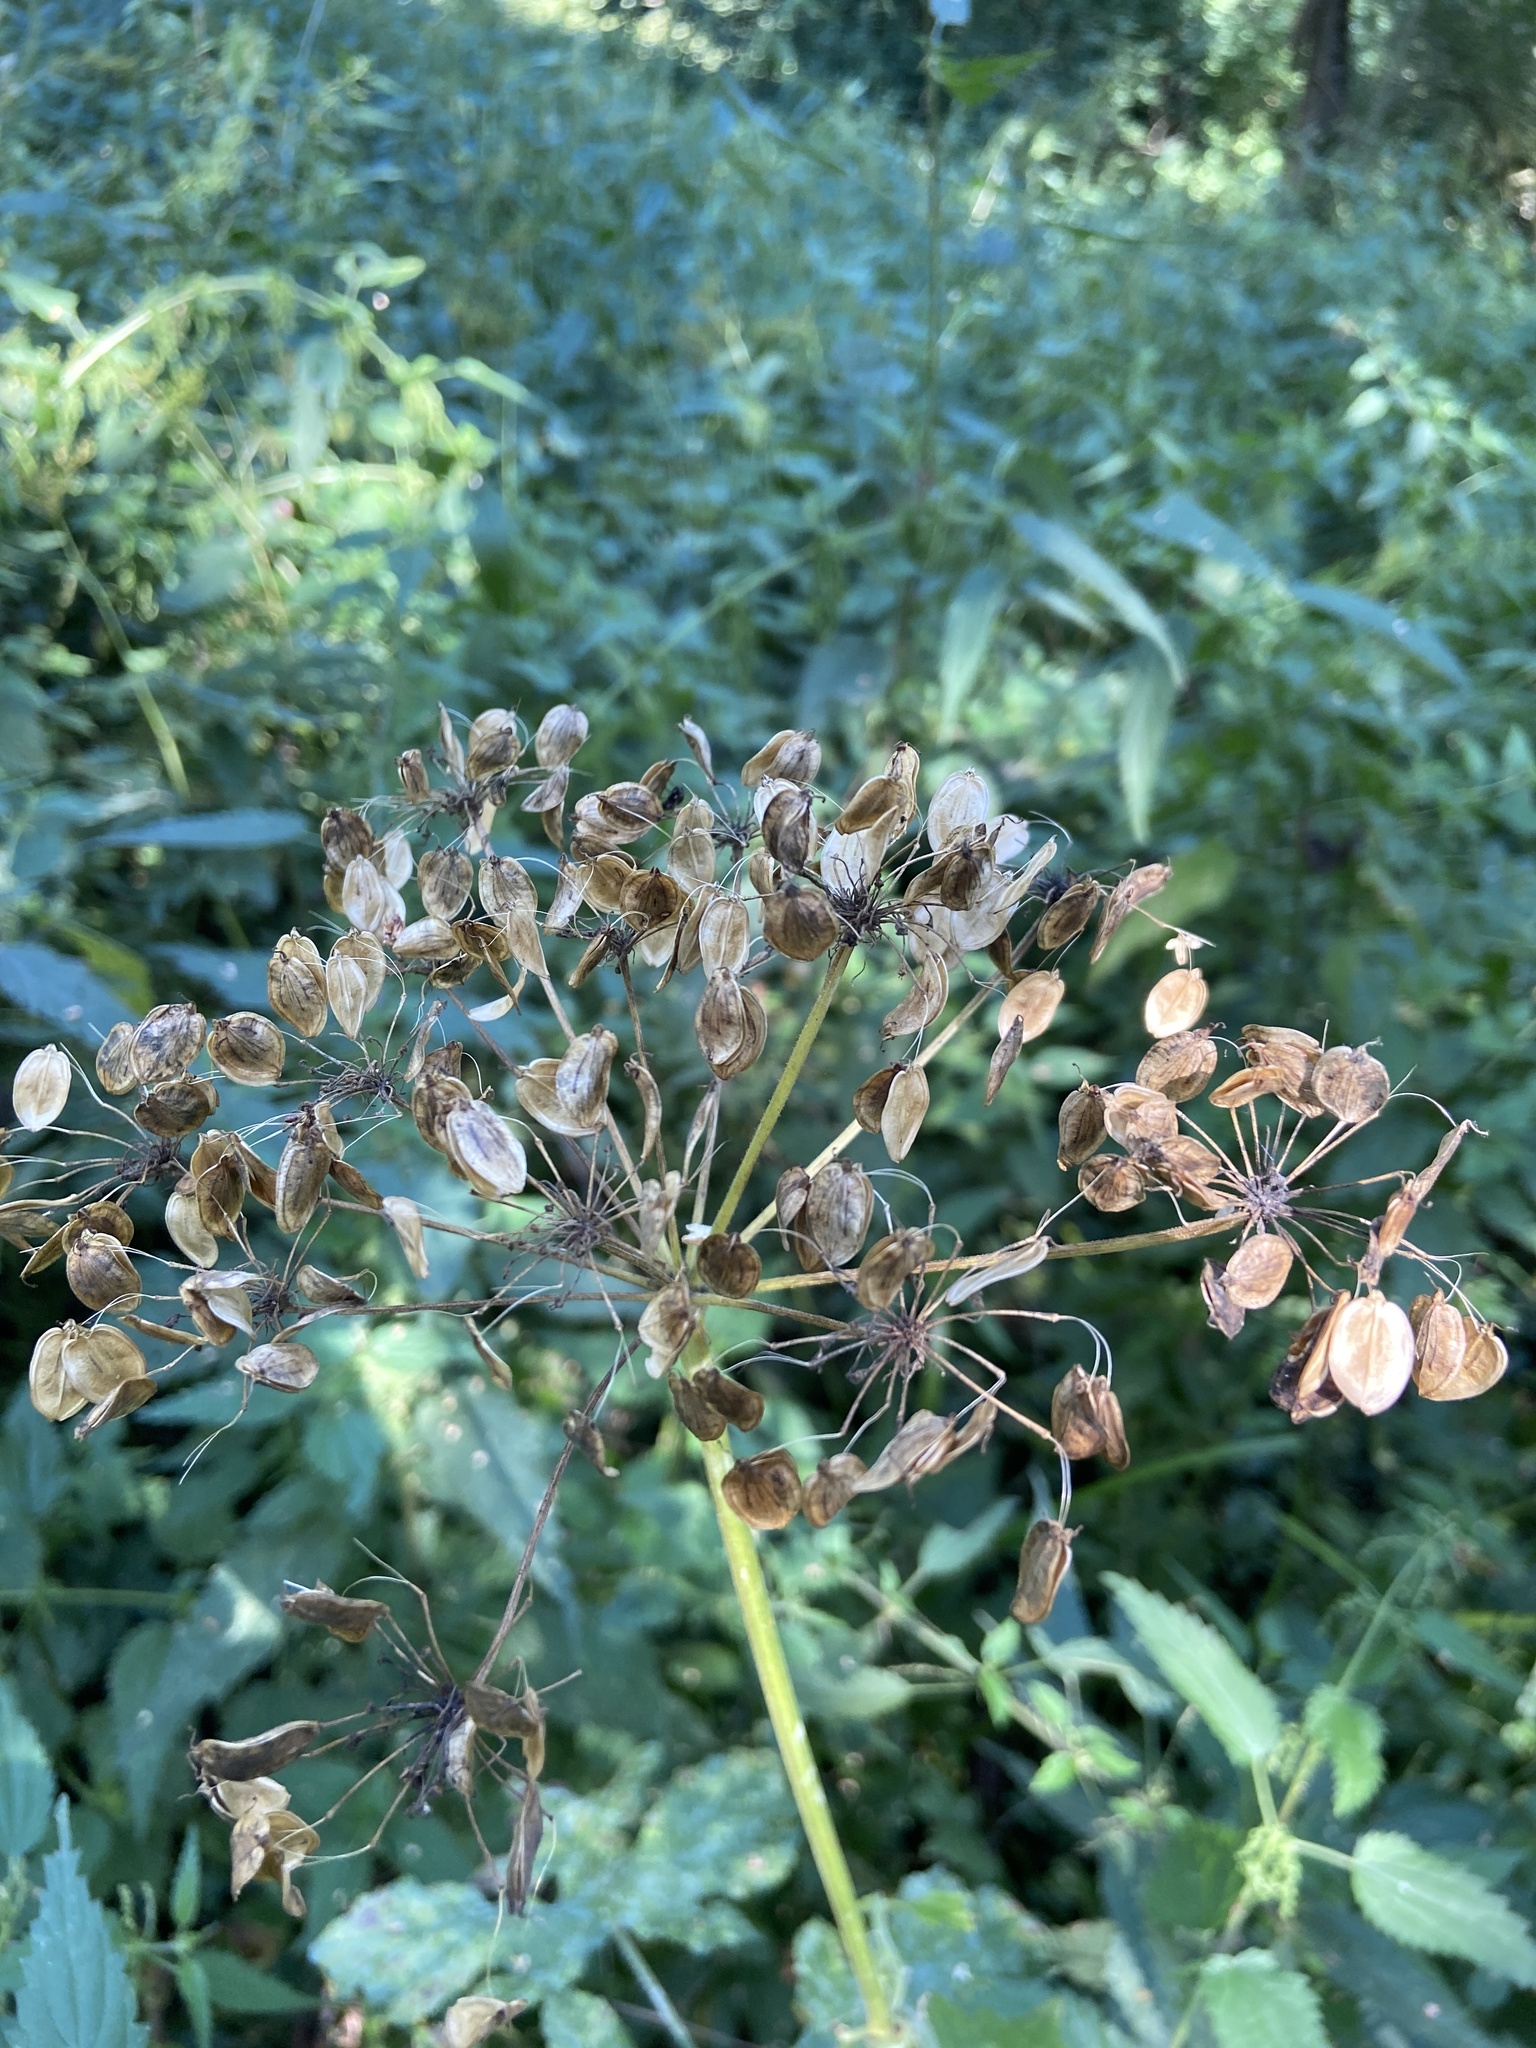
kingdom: Plantae
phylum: Tracheophyta
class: Magnoliopsida
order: Apiales
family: Apiaceae
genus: Heracleum
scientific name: Heracleum sphondylium
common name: Hogweed
